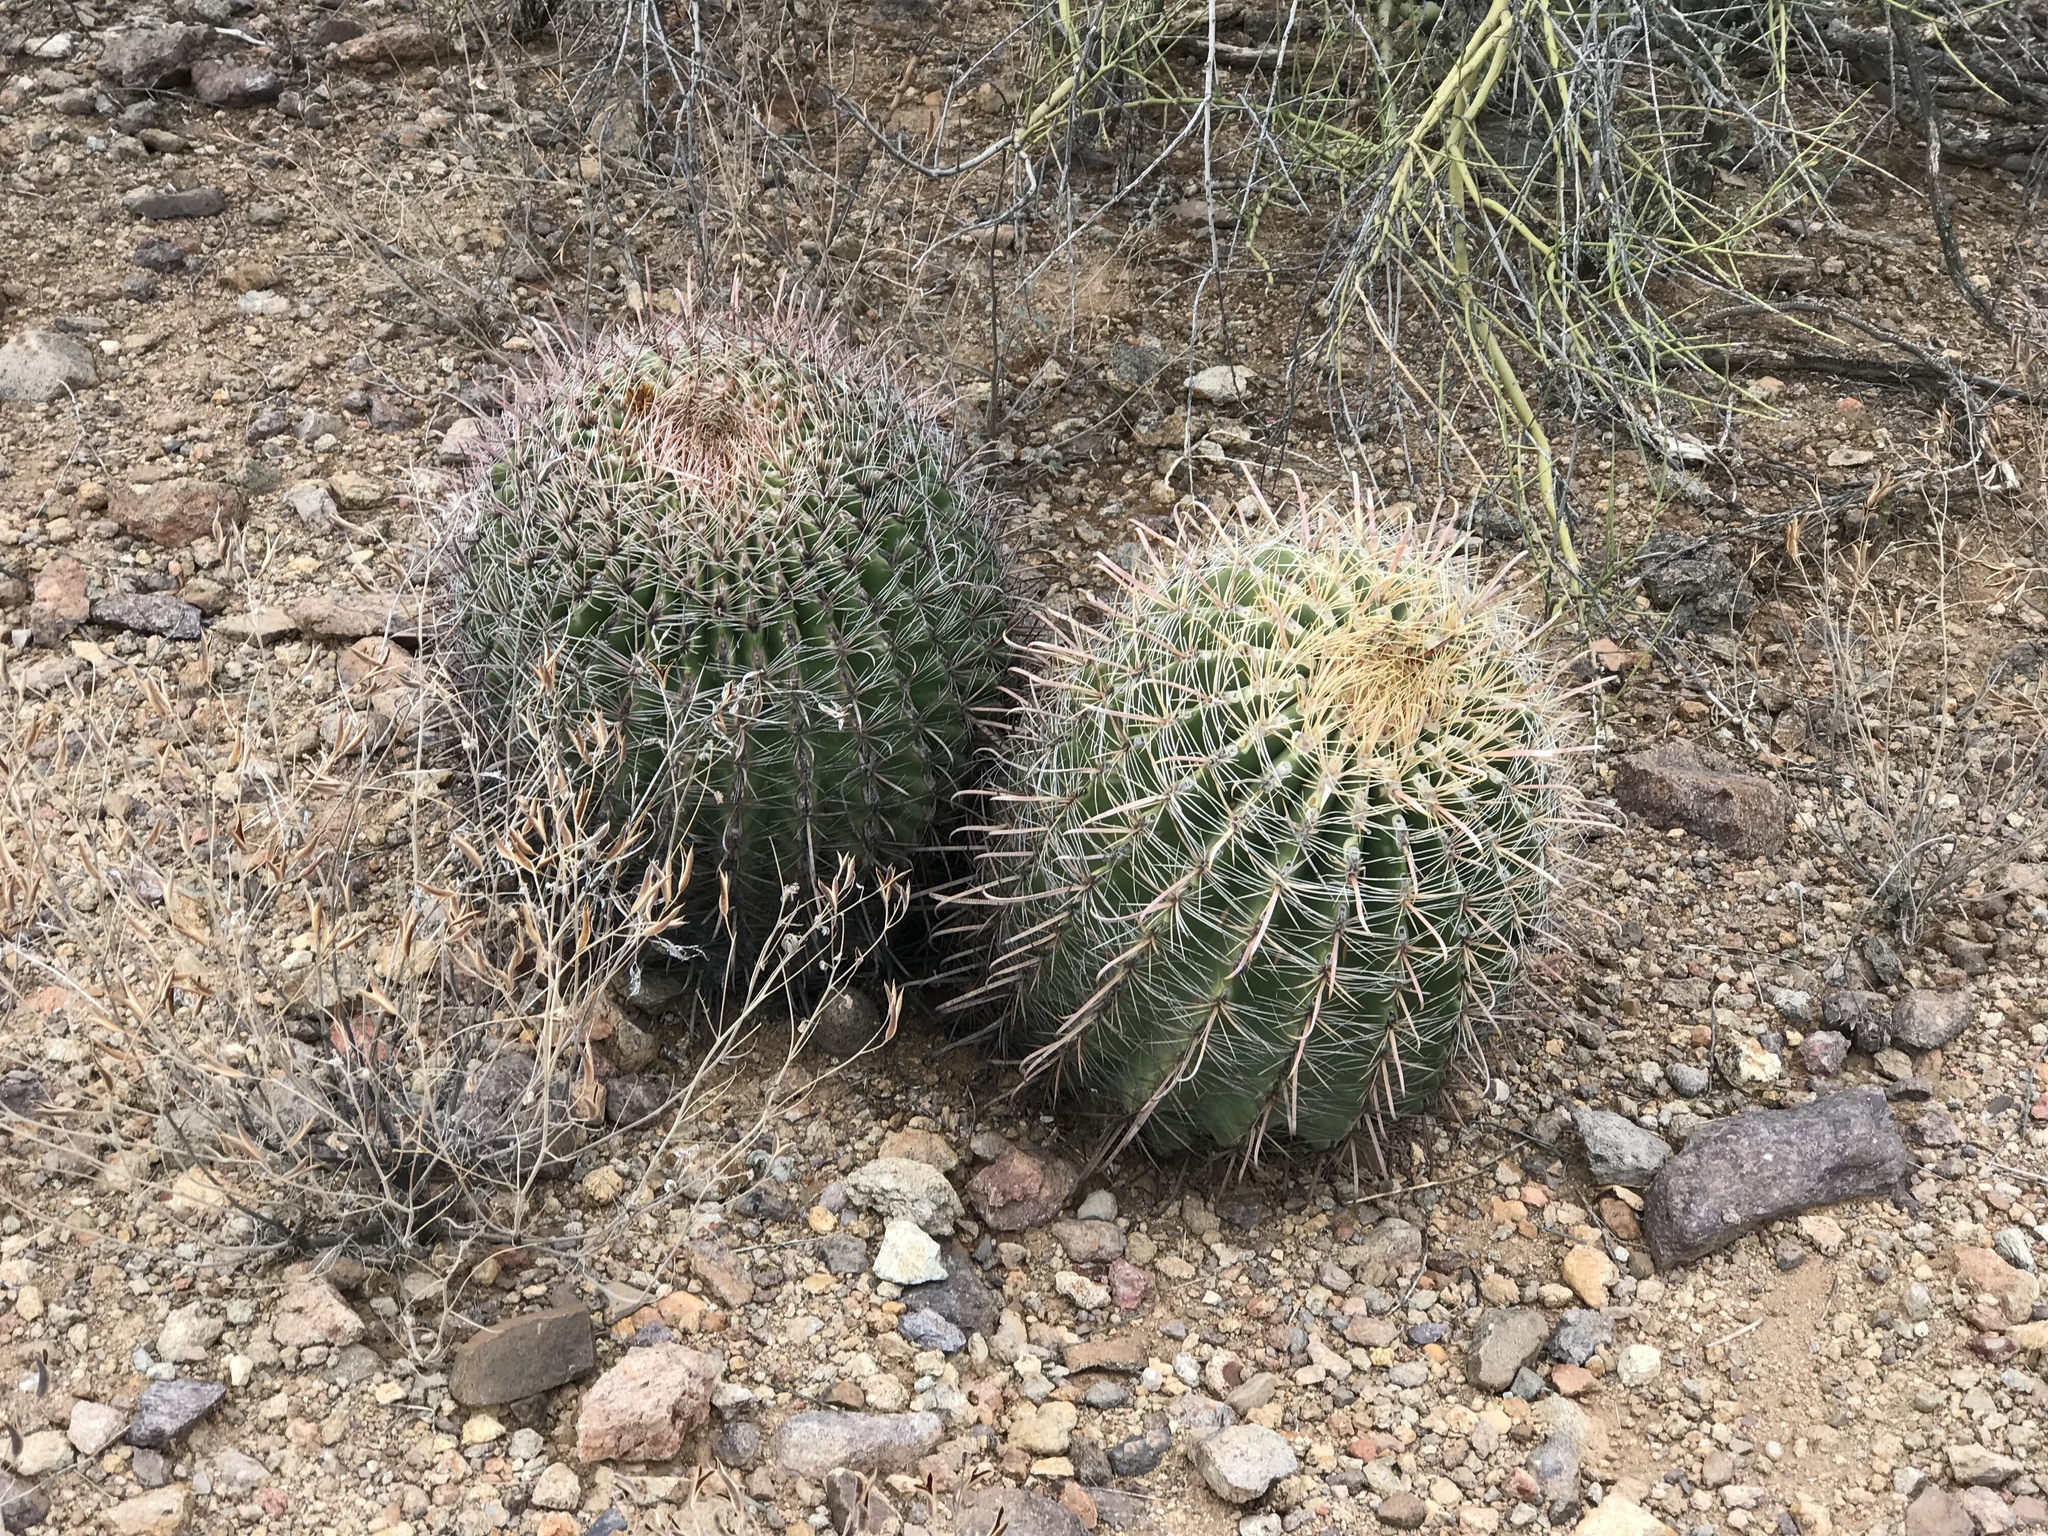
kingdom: Plantae
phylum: Tracheophyta
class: Magnoliopsida
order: Caryophyllales
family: Cactaceae
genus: Ferocactus
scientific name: Ferocactus wislizeni
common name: Candy barrel cactus
